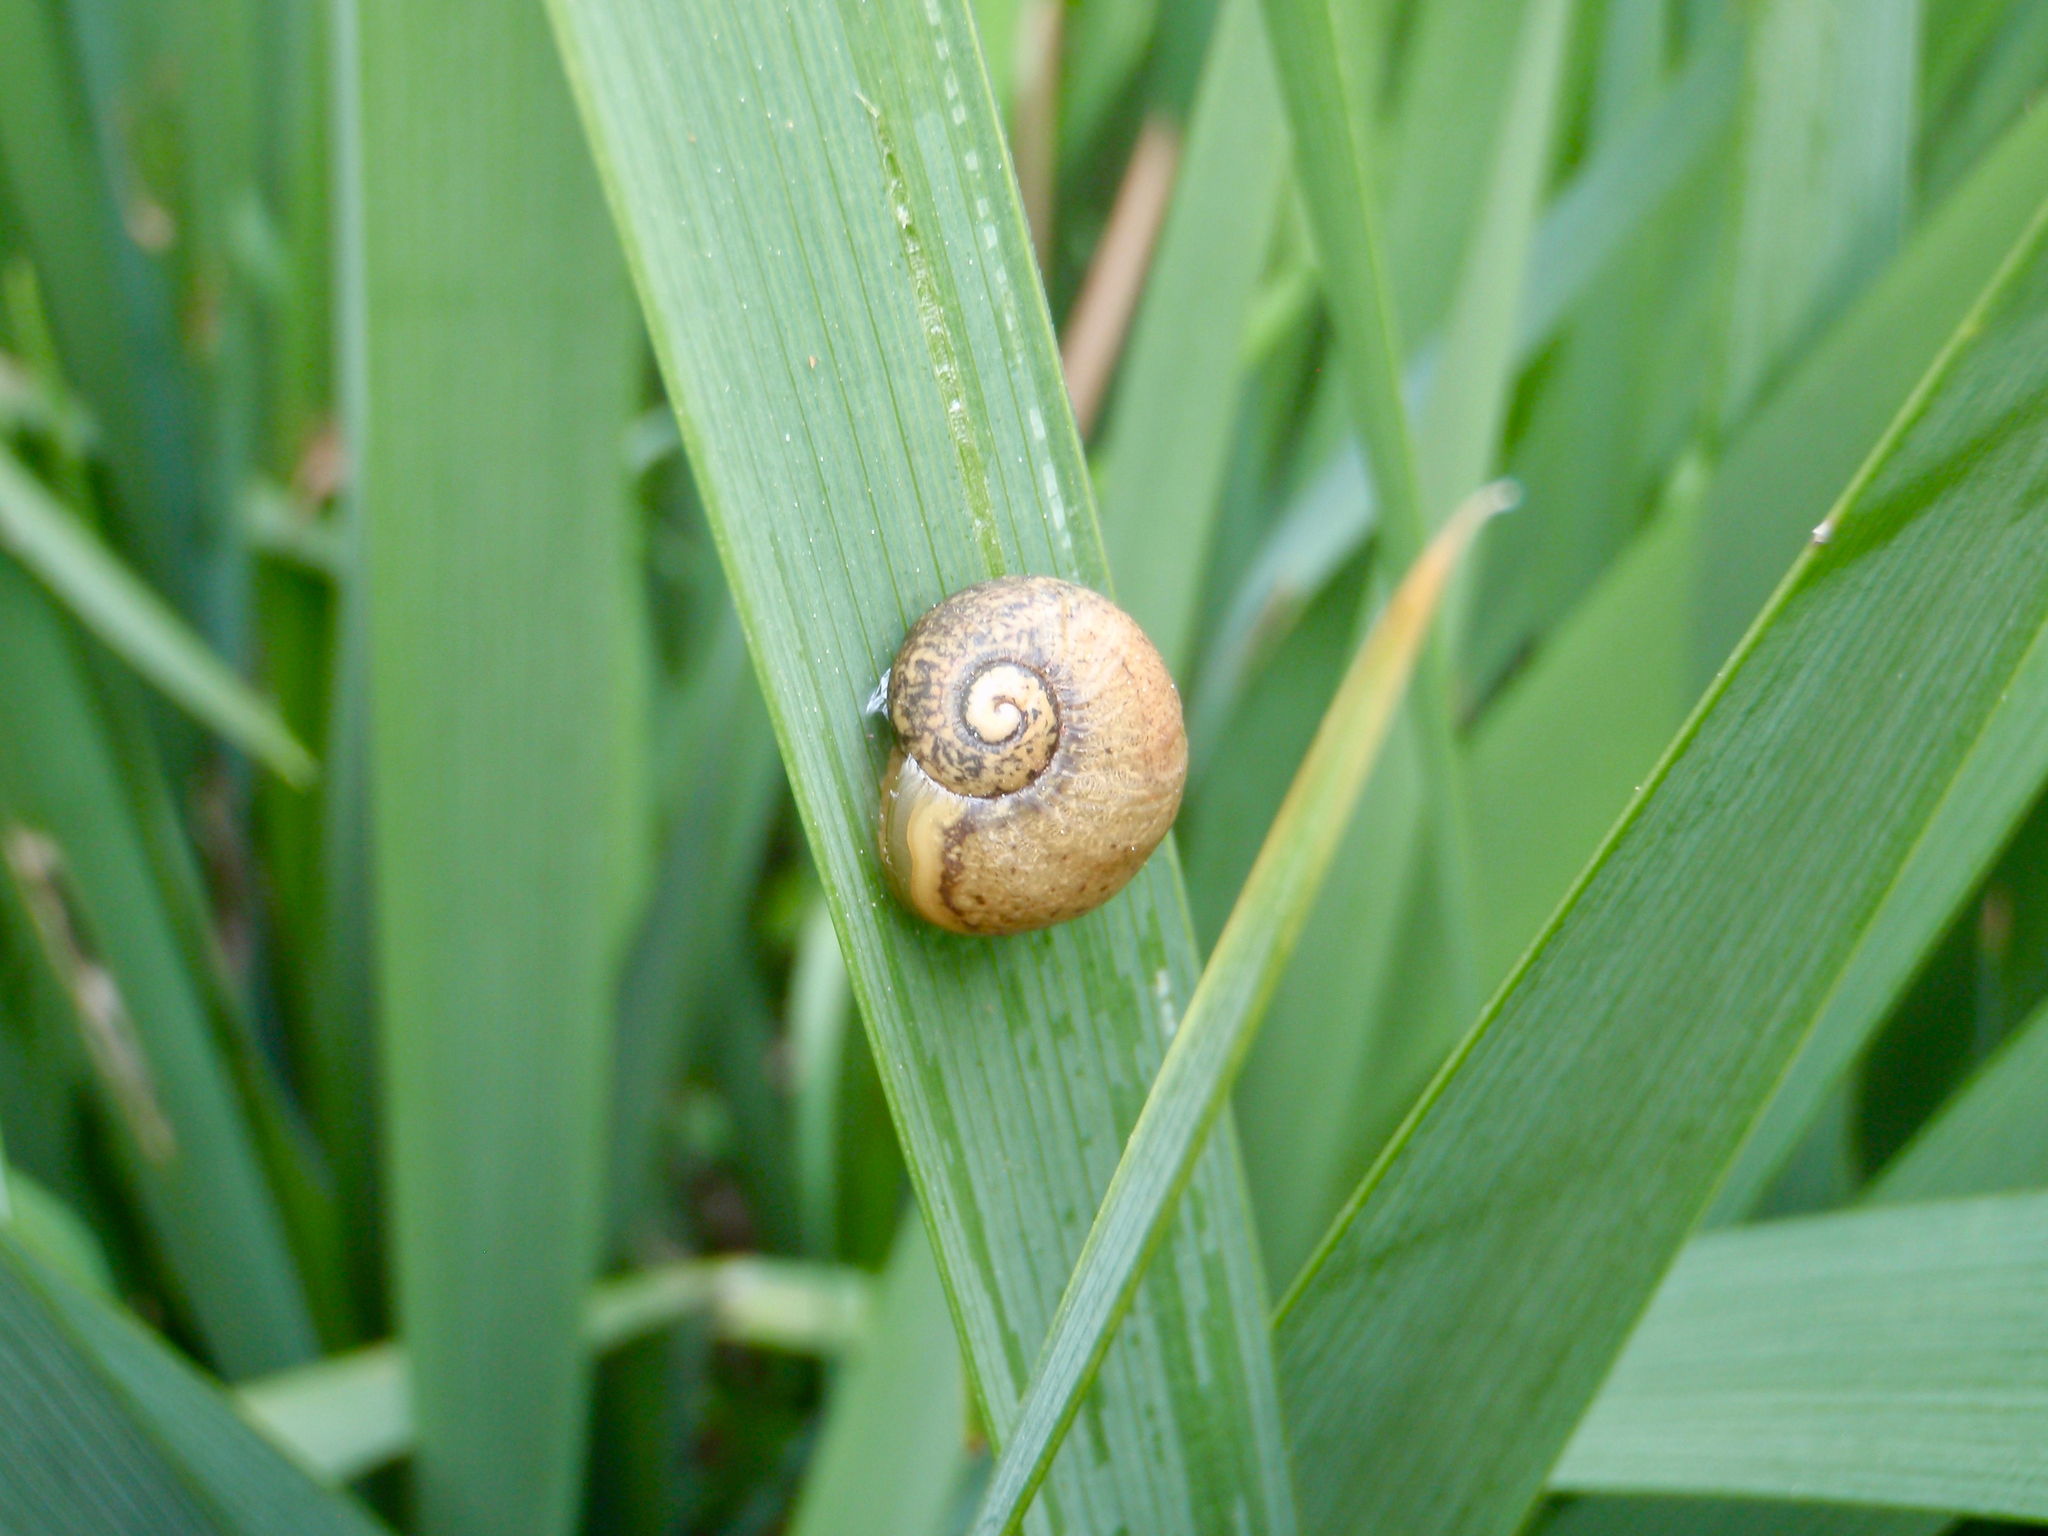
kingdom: Animalia
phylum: Mollusca
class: Gastropoda
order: Stylommatophora
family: Helicidae
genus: Cantareus
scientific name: Cantareus apertus
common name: Green gardensnail
